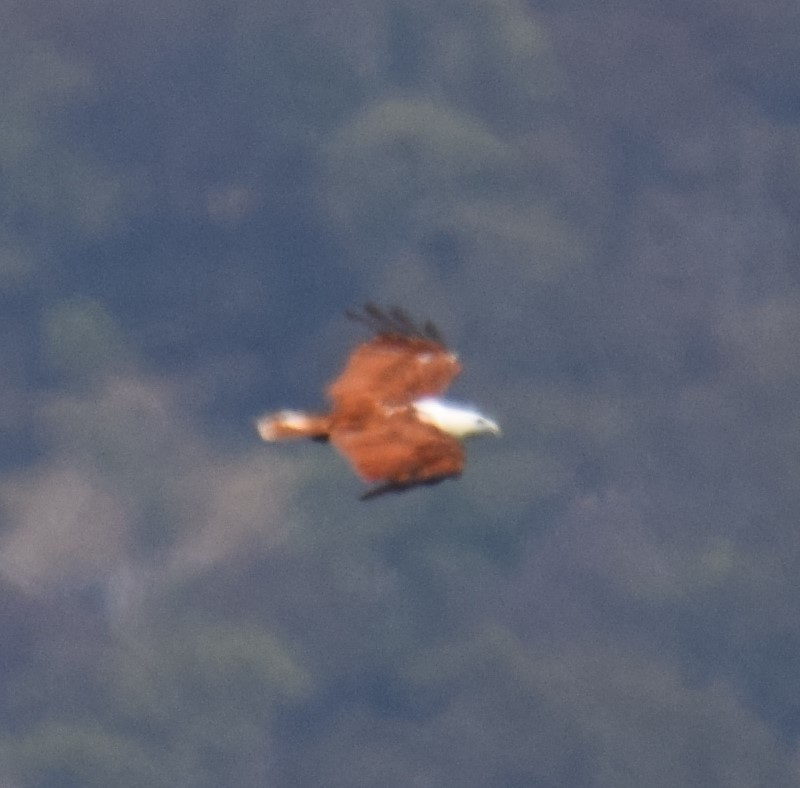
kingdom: Animalia
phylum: Chordata
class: Aves
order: Accipitriformes
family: Accipitridae
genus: Haliastur
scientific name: Haliastur indus
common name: Brahminy kite
